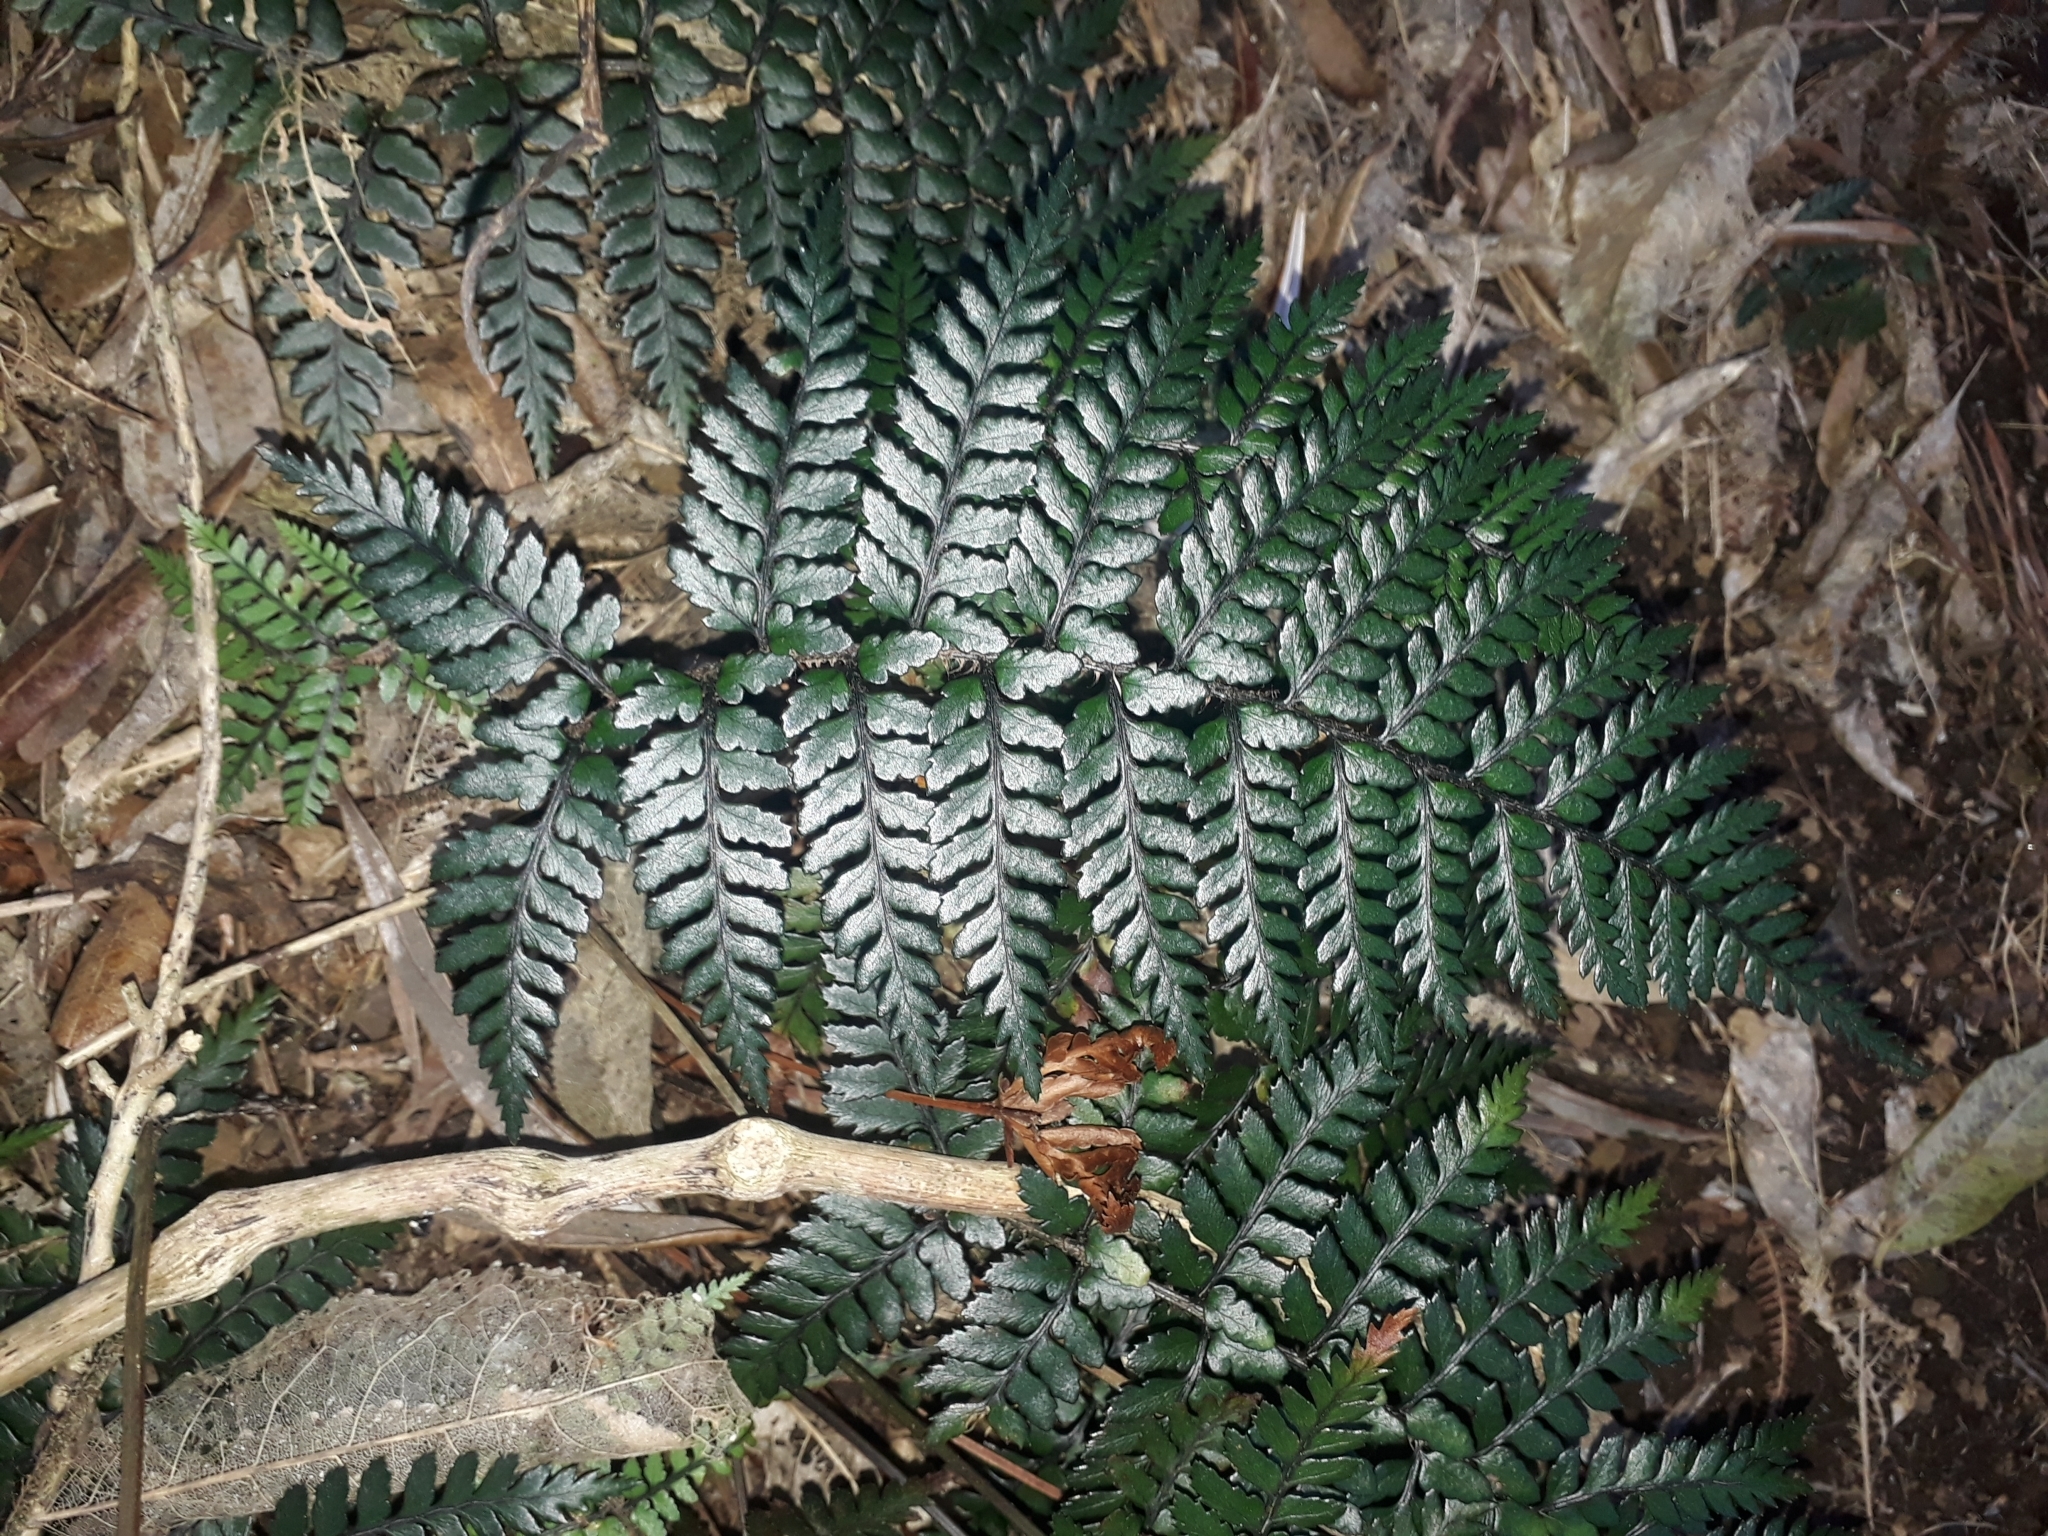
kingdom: Plantae
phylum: Tracheophyta
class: Polypodiopsida
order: Polypodiales
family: Dryopteridaceae
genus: Polystichum
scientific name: Polystichum neozelandicum
